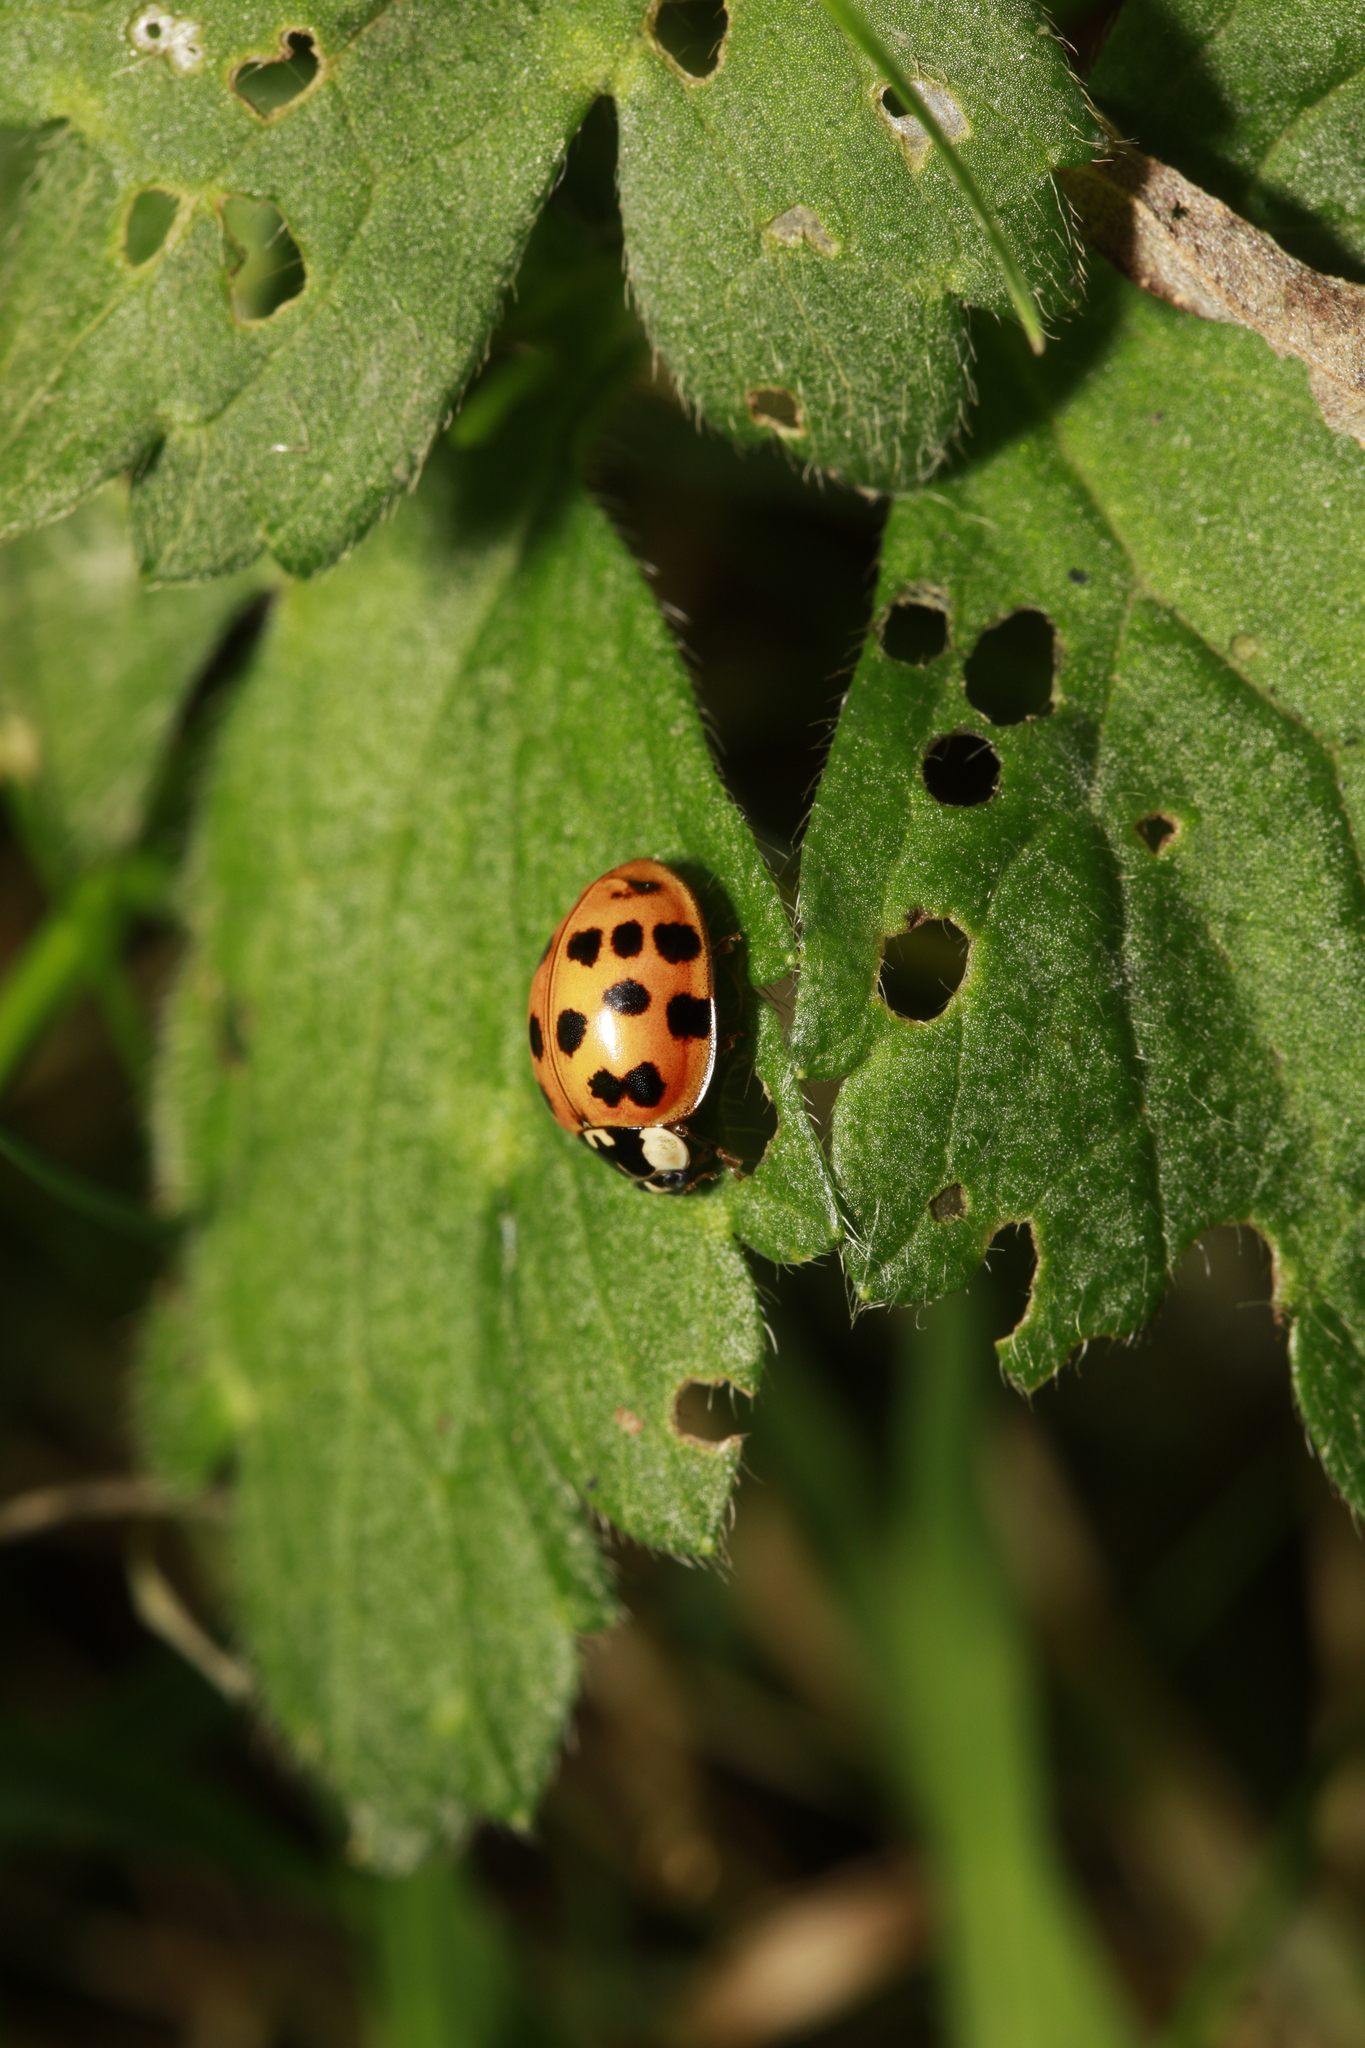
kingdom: Animalia
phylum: Arthropoda
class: Insecta
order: Coleoptera
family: Coccinellidae
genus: Harmonia
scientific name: Harmonia axyridis
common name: Harlequin ladybird
